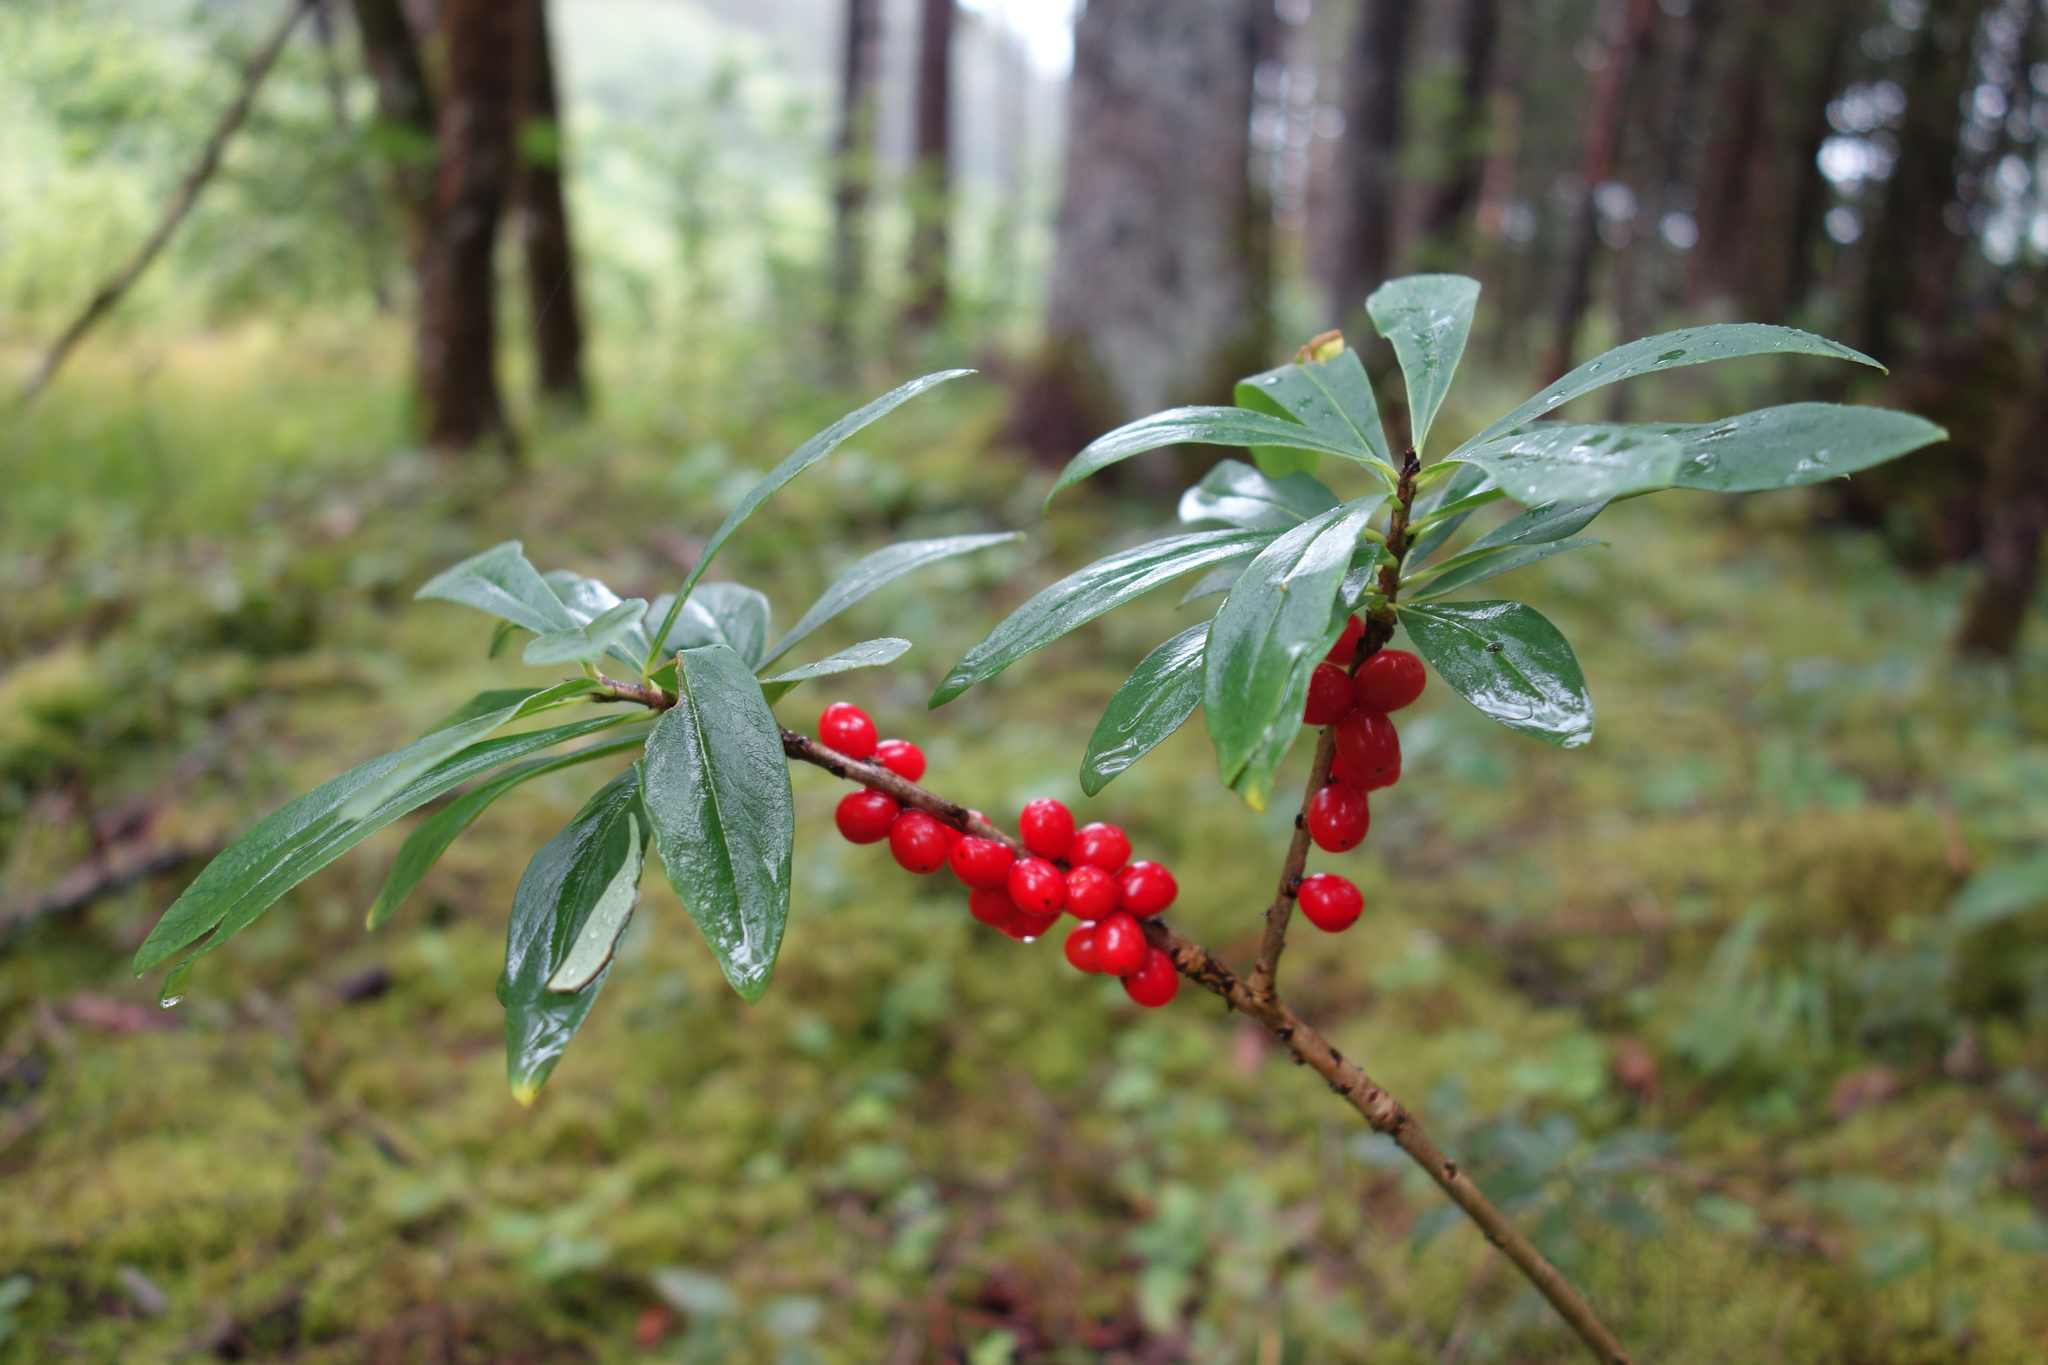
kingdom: Plantae
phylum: Tracheophyta
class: Magnoliopsida
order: Malvales
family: Thymelaeaceae
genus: Daphne
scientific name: Daphne mezereum
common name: Mezereon
